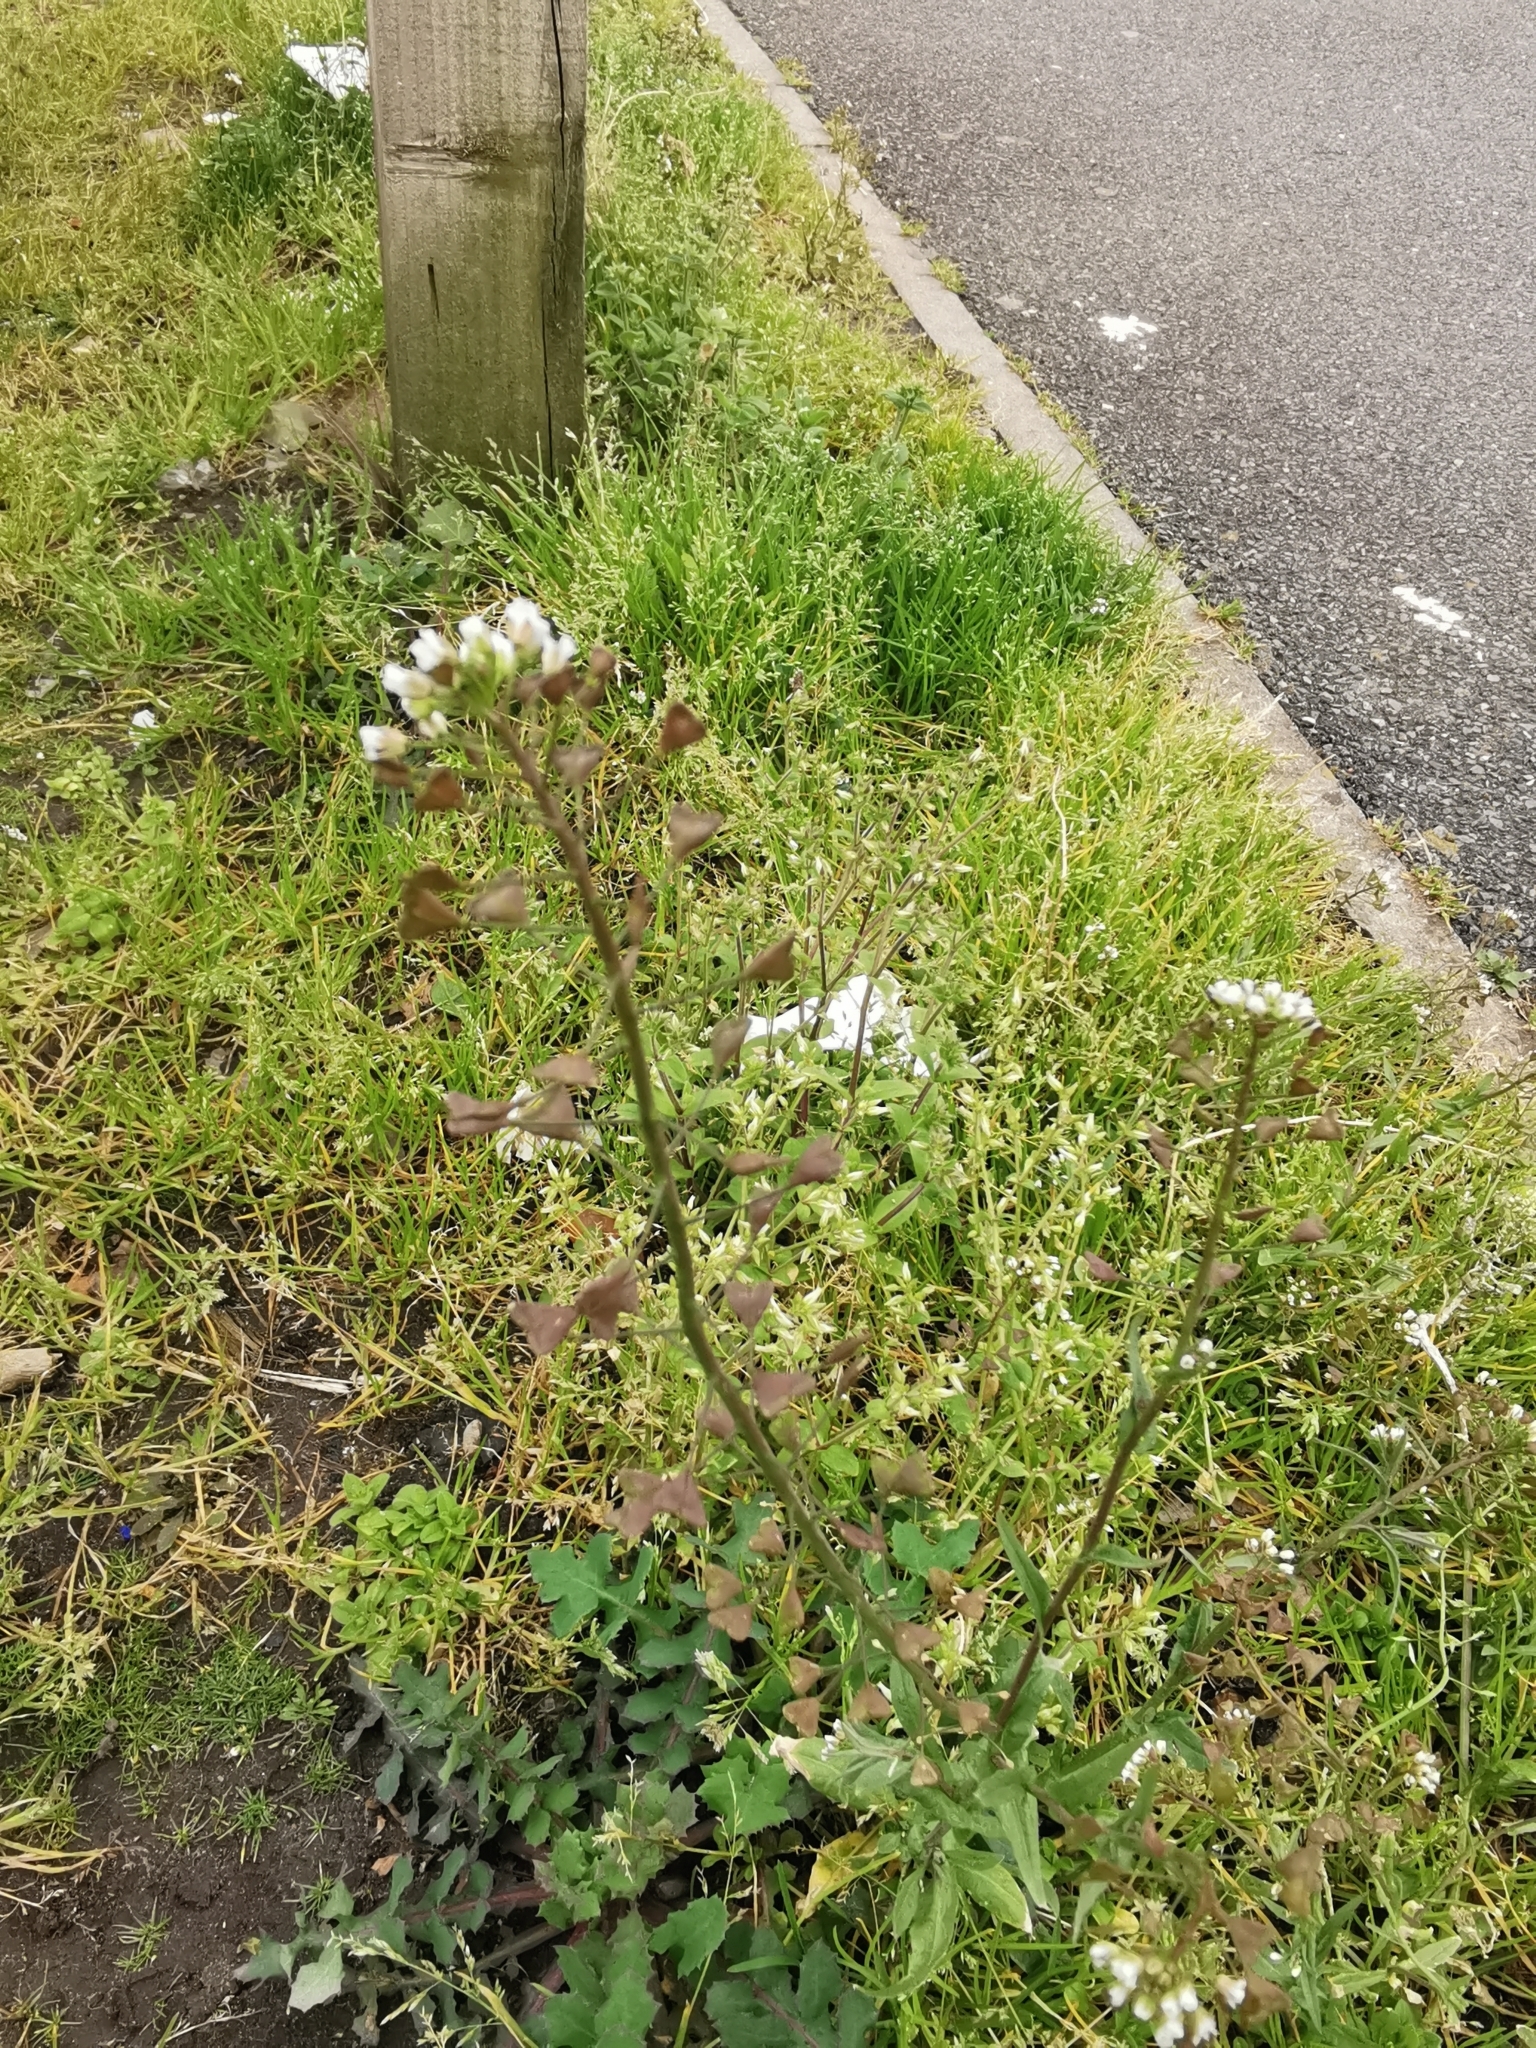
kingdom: Plantae
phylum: Tracheophyta
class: Magnoliopsida
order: Brassicales
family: Brassicaceae
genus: Capsella
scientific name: Capsella bursa-pastoris
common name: Shepherd's purse
